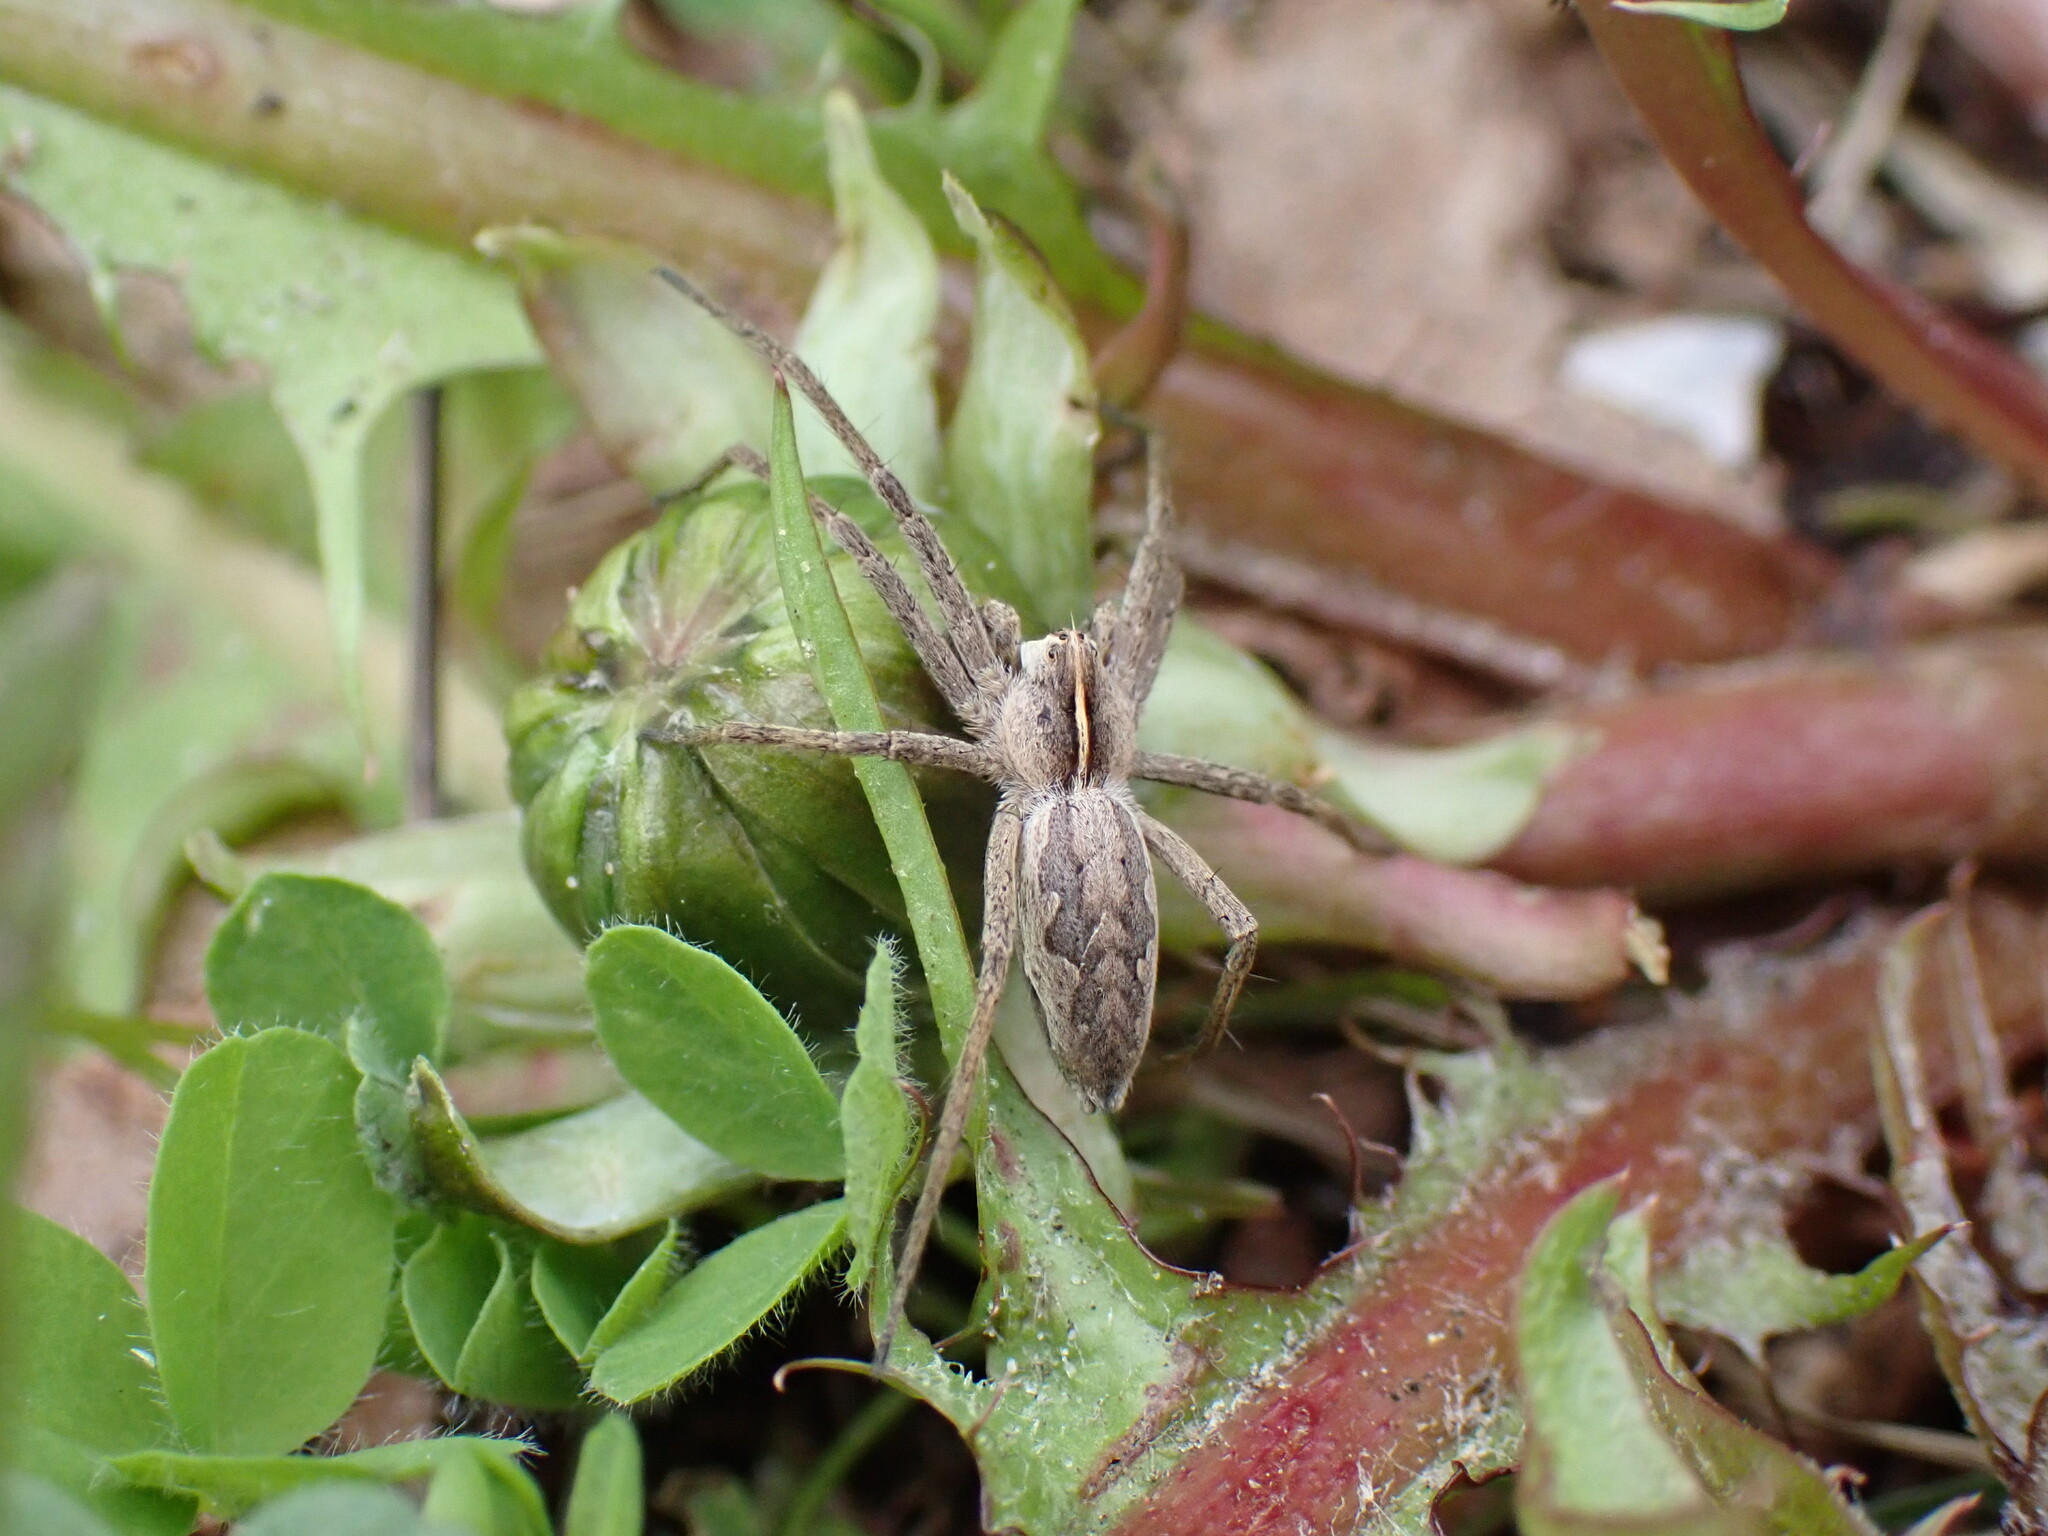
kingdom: Animalia
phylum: Arthropoda
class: Arachnida
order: Araneae
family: Pisauridae
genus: Pisaura
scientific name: Pisaura mirabilis
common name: Tent spider
